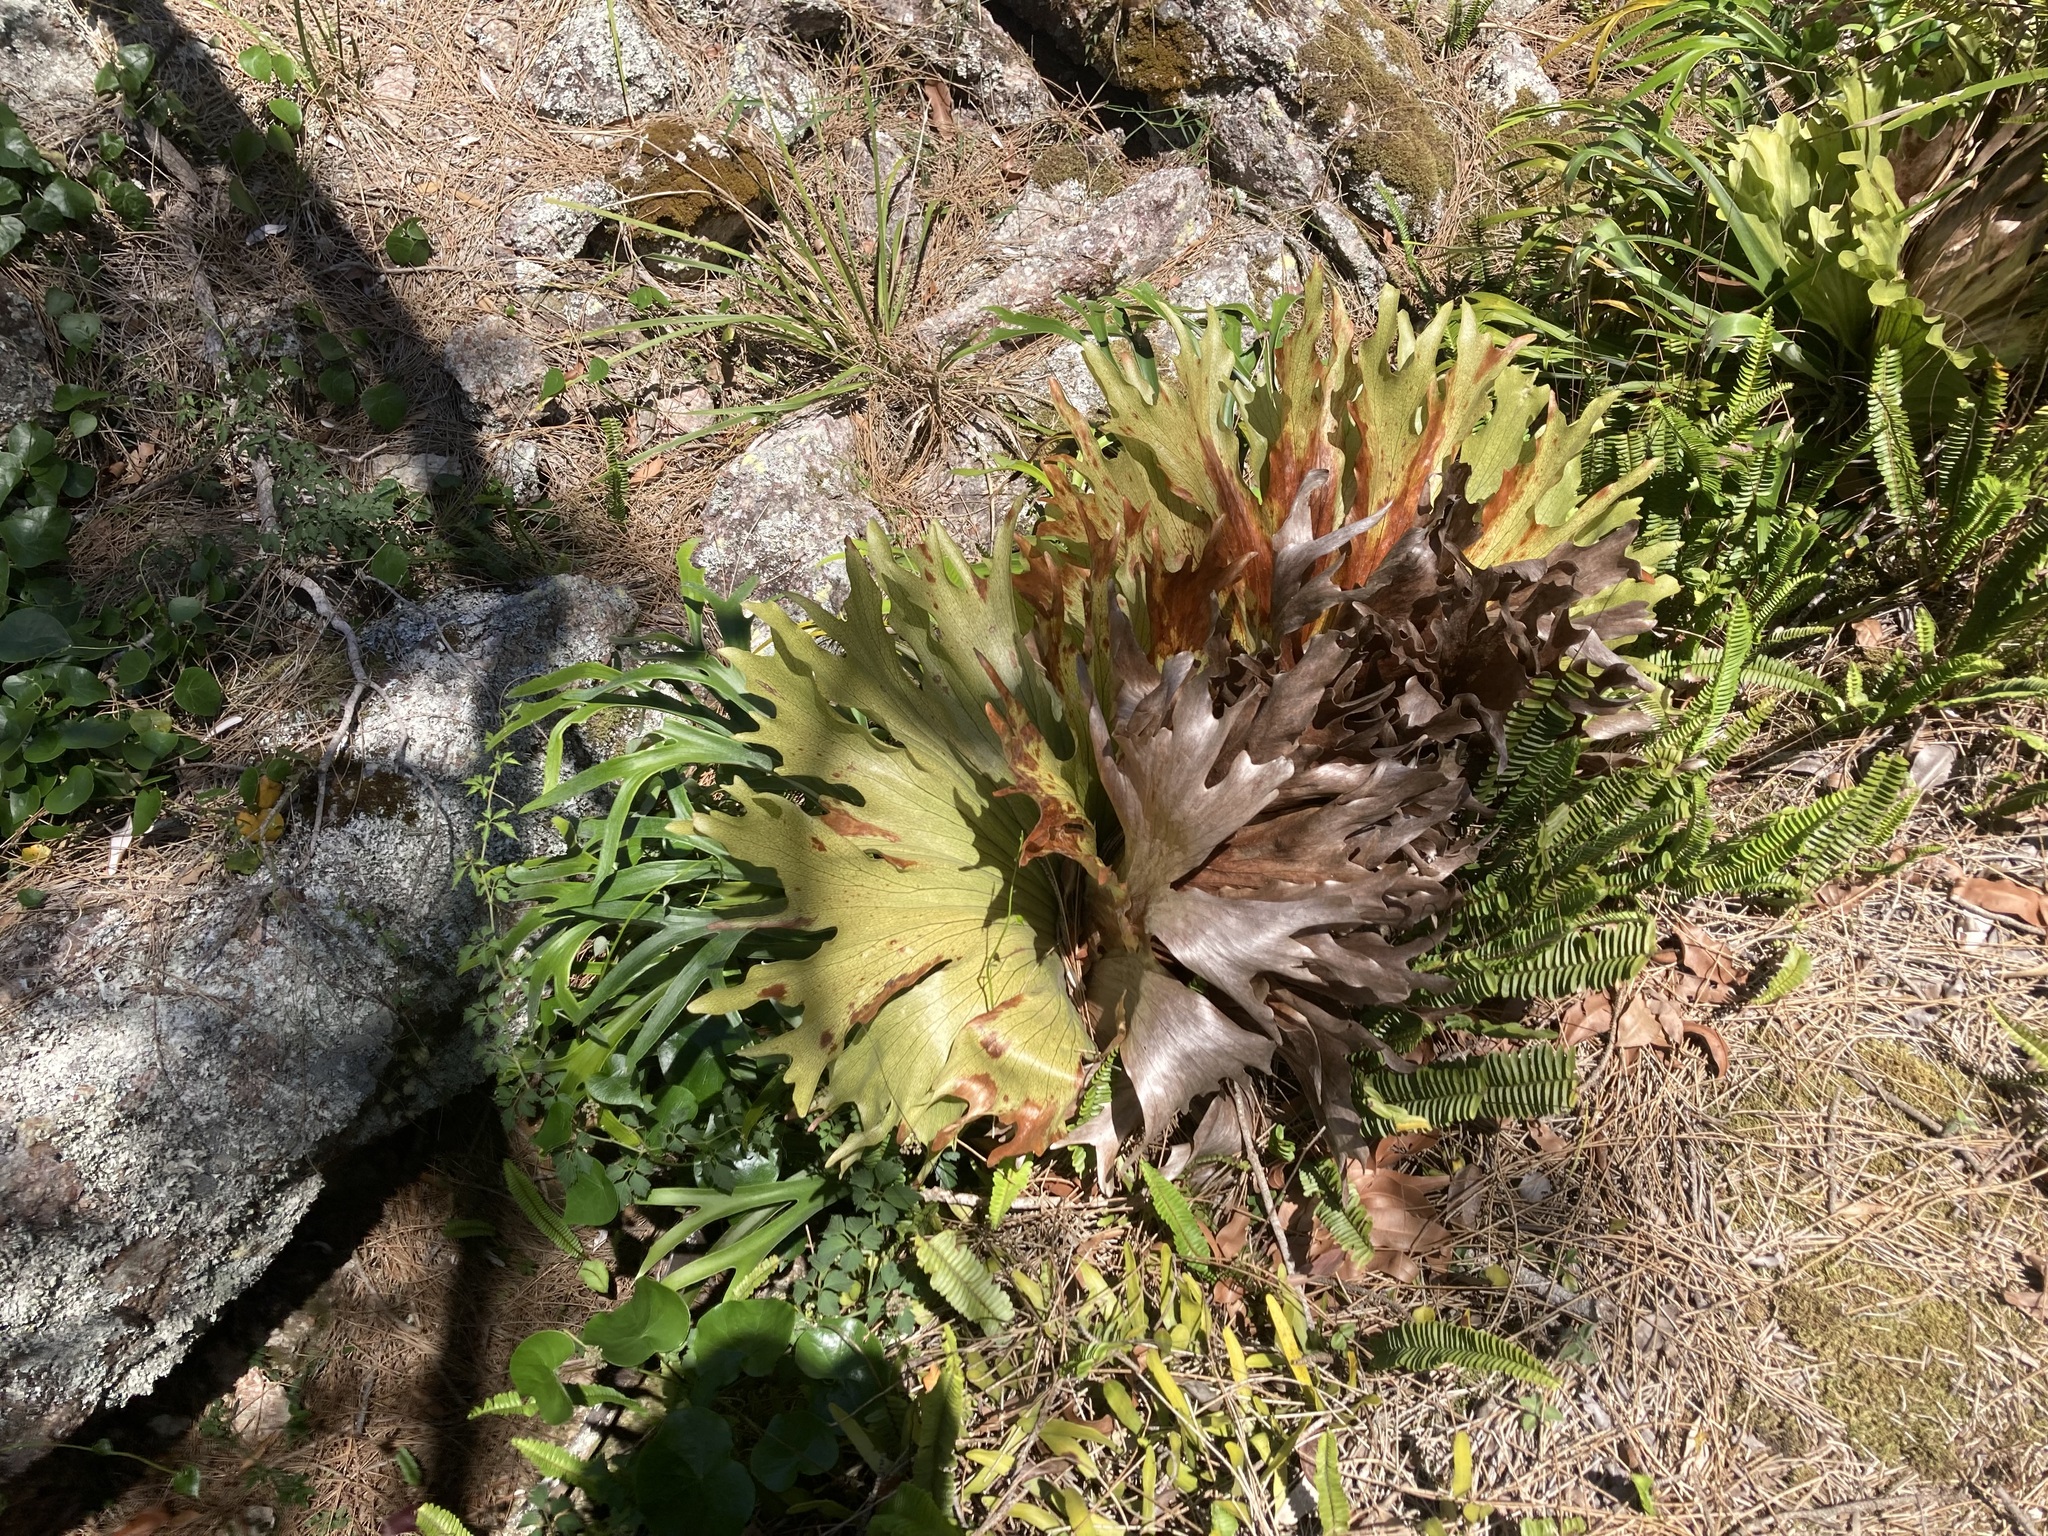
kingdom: Plantae
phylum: Tracheophyta
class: Polypodiopsida
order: Polypodiales
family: Polypodiaceae
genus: Platycerium
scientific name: Platycerium bifurcatum
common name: Elkhorn fern
